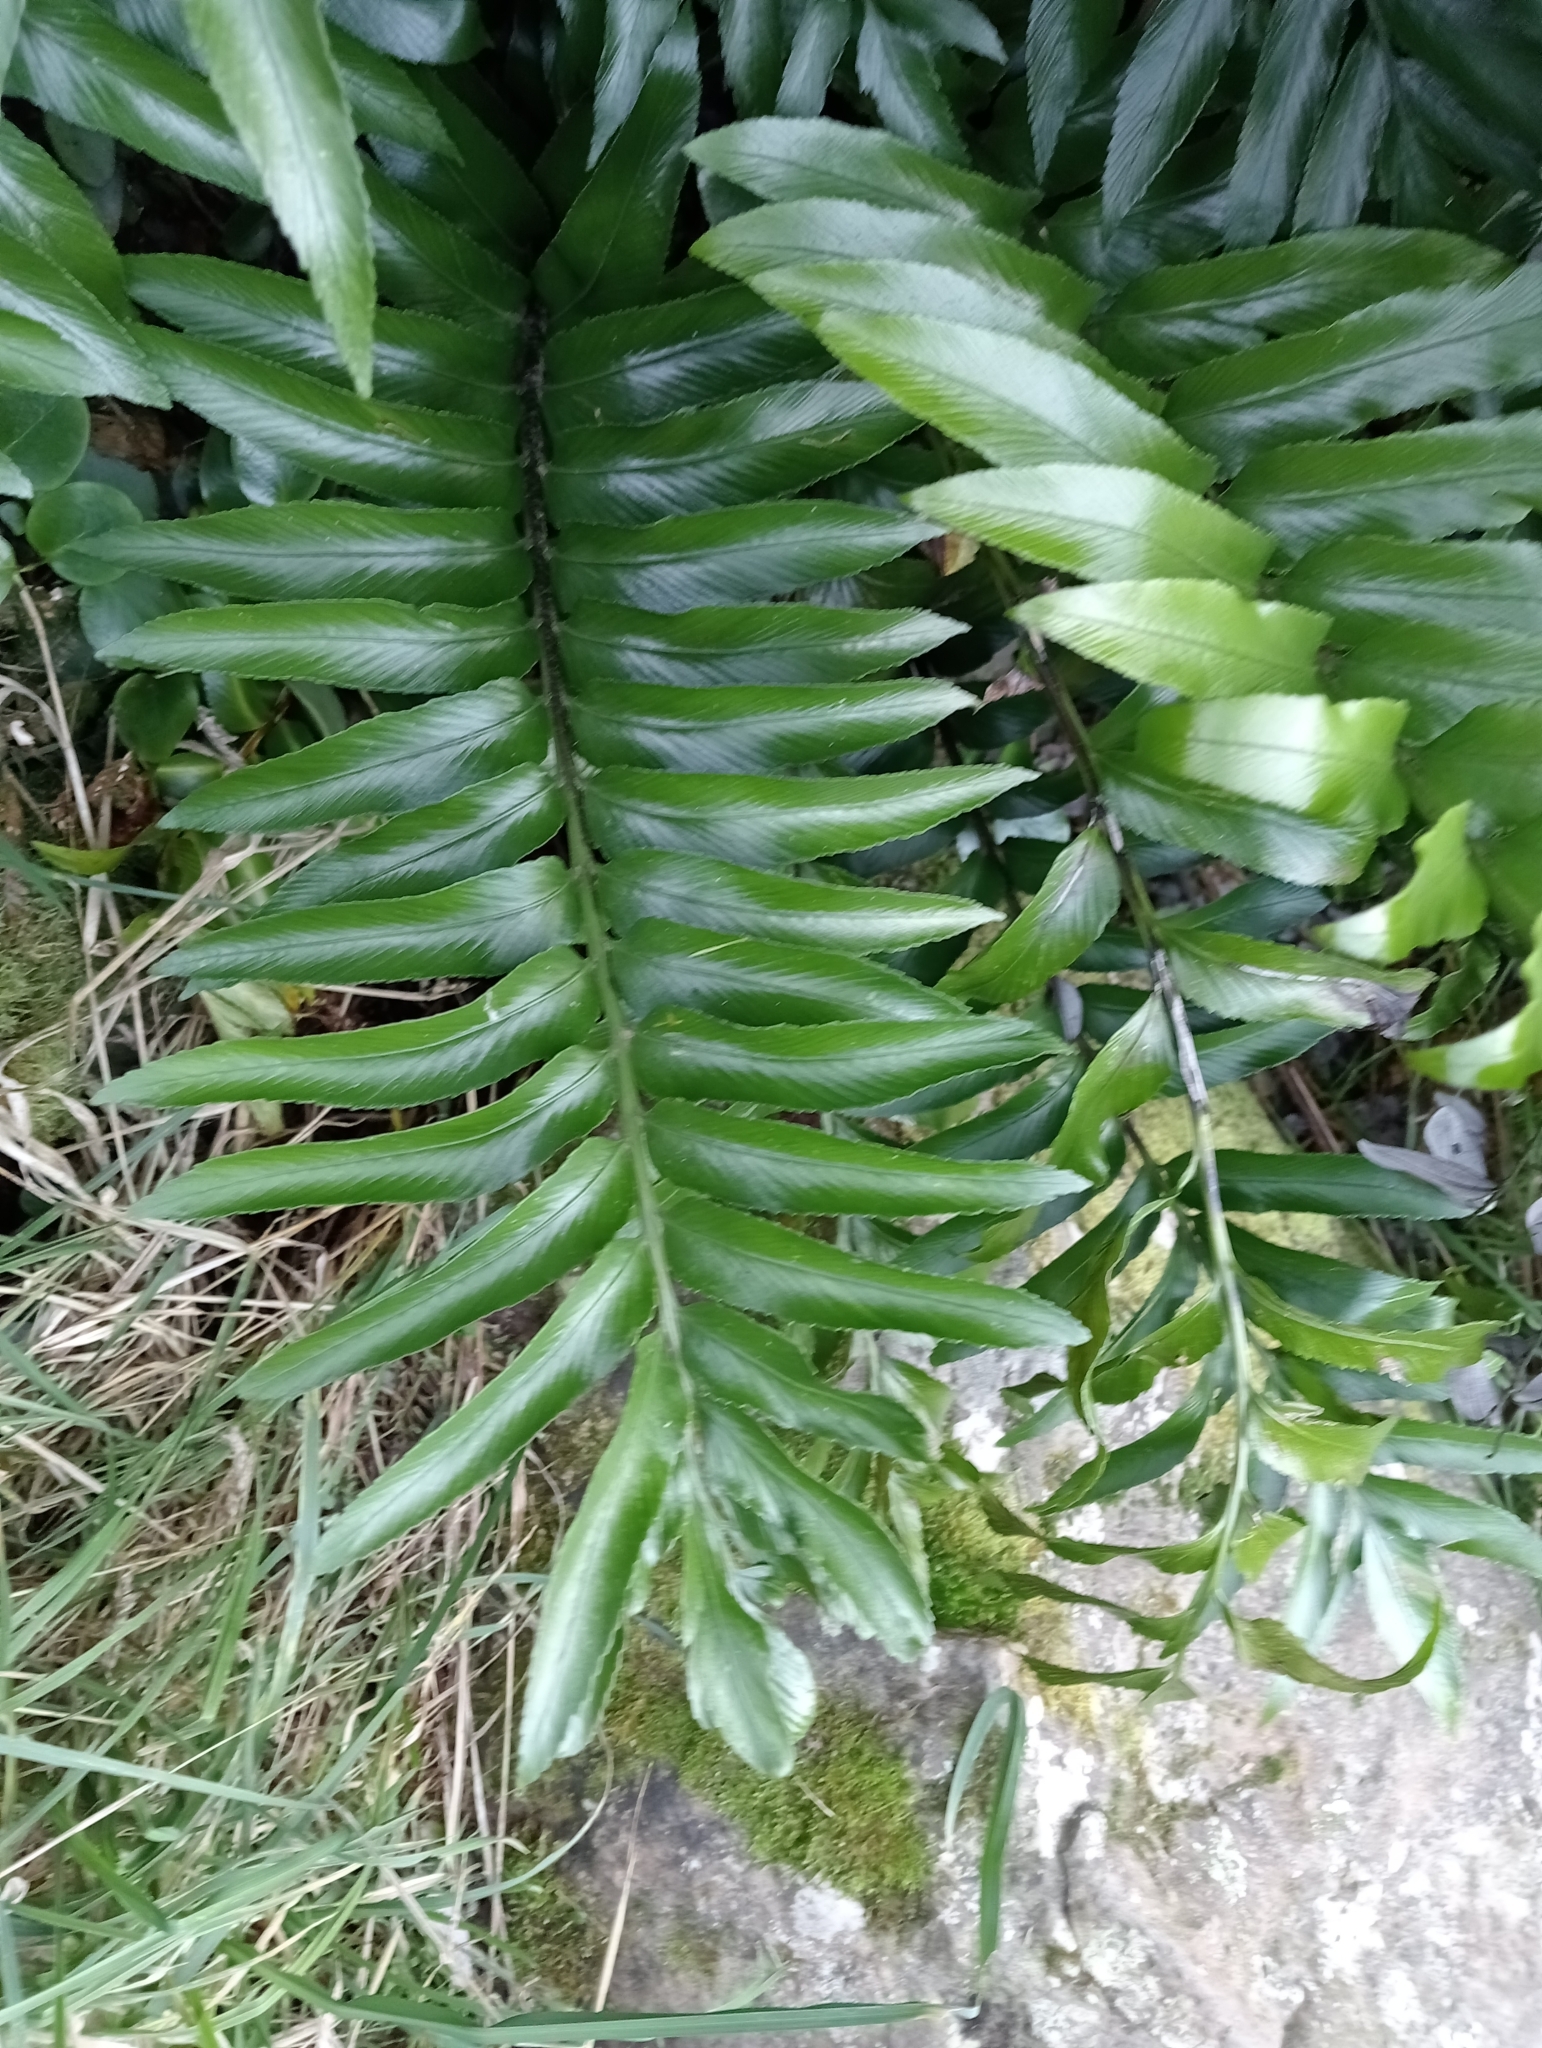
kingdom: Plantae
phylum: Tracheophyta
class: Polypodiopsida
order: Polypodiales
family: Aspleniaceae
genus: Asplenium
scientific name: Asplenium oblongifolium
